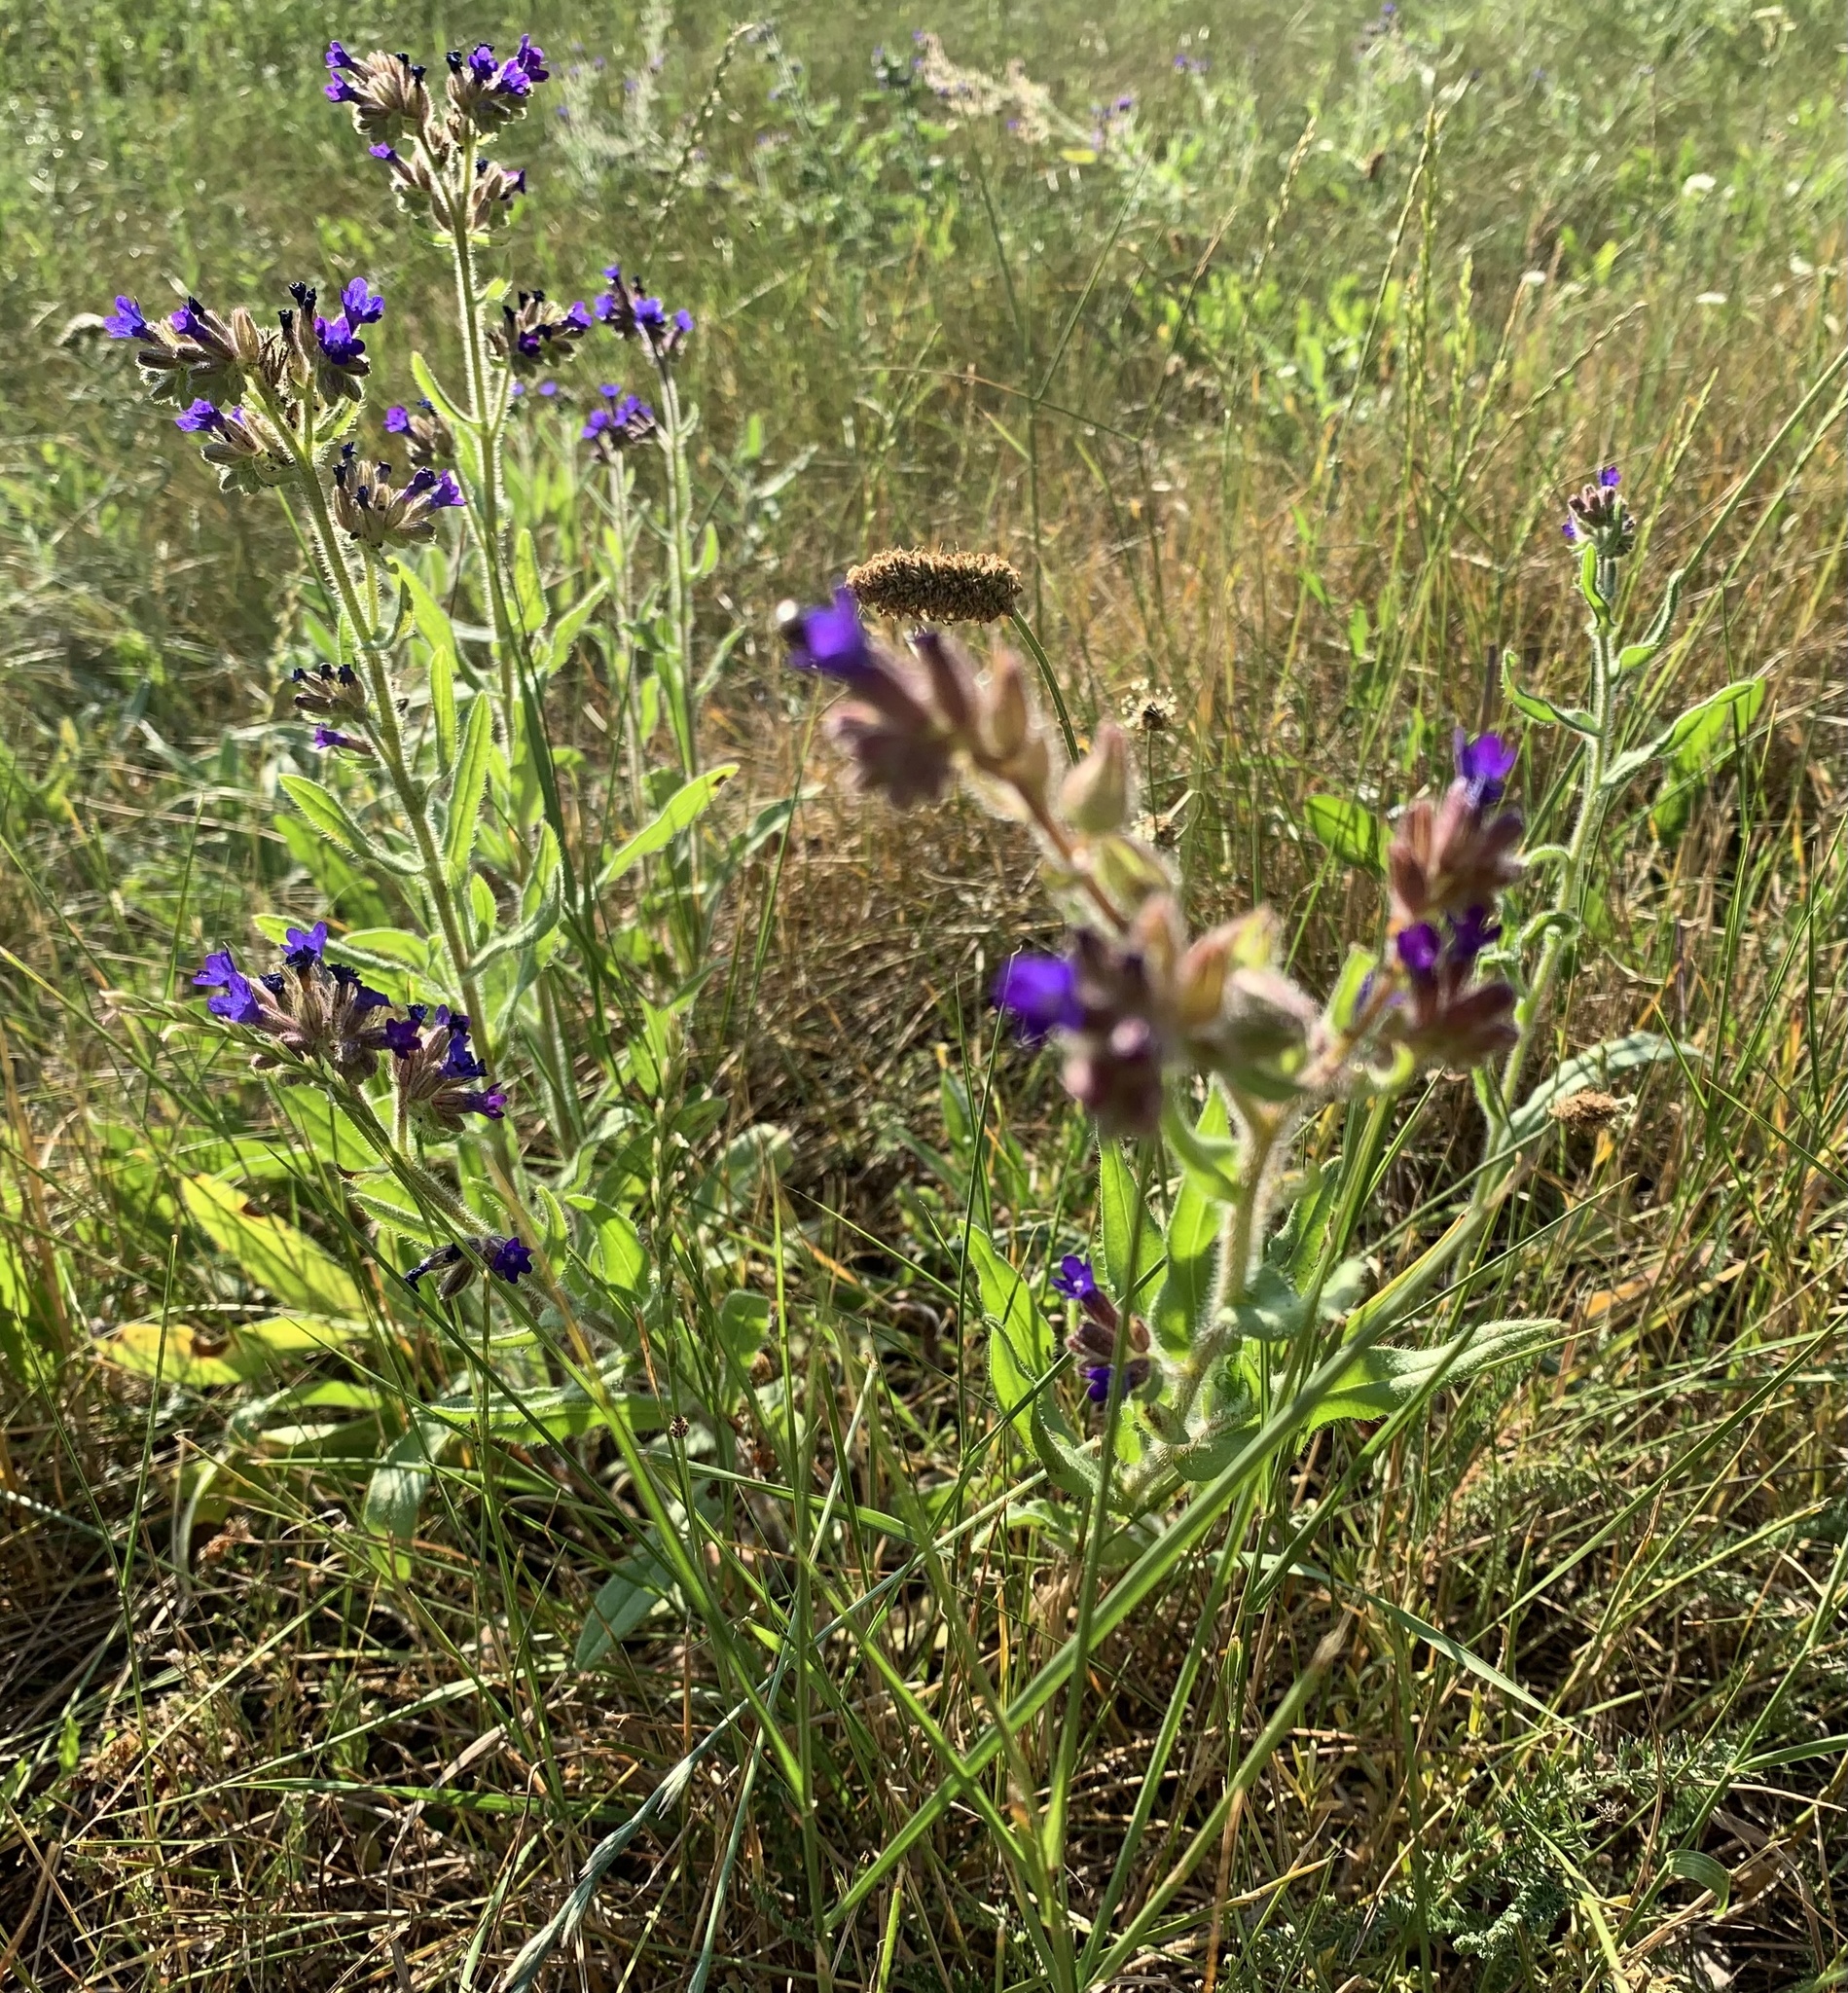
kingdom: Plantae
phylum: Tracheophyta
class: Magnoliopsida
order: Boraginales
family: Boraginaceae
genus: Anchusa
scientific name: Anchusa officinalis
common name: Alkanet
